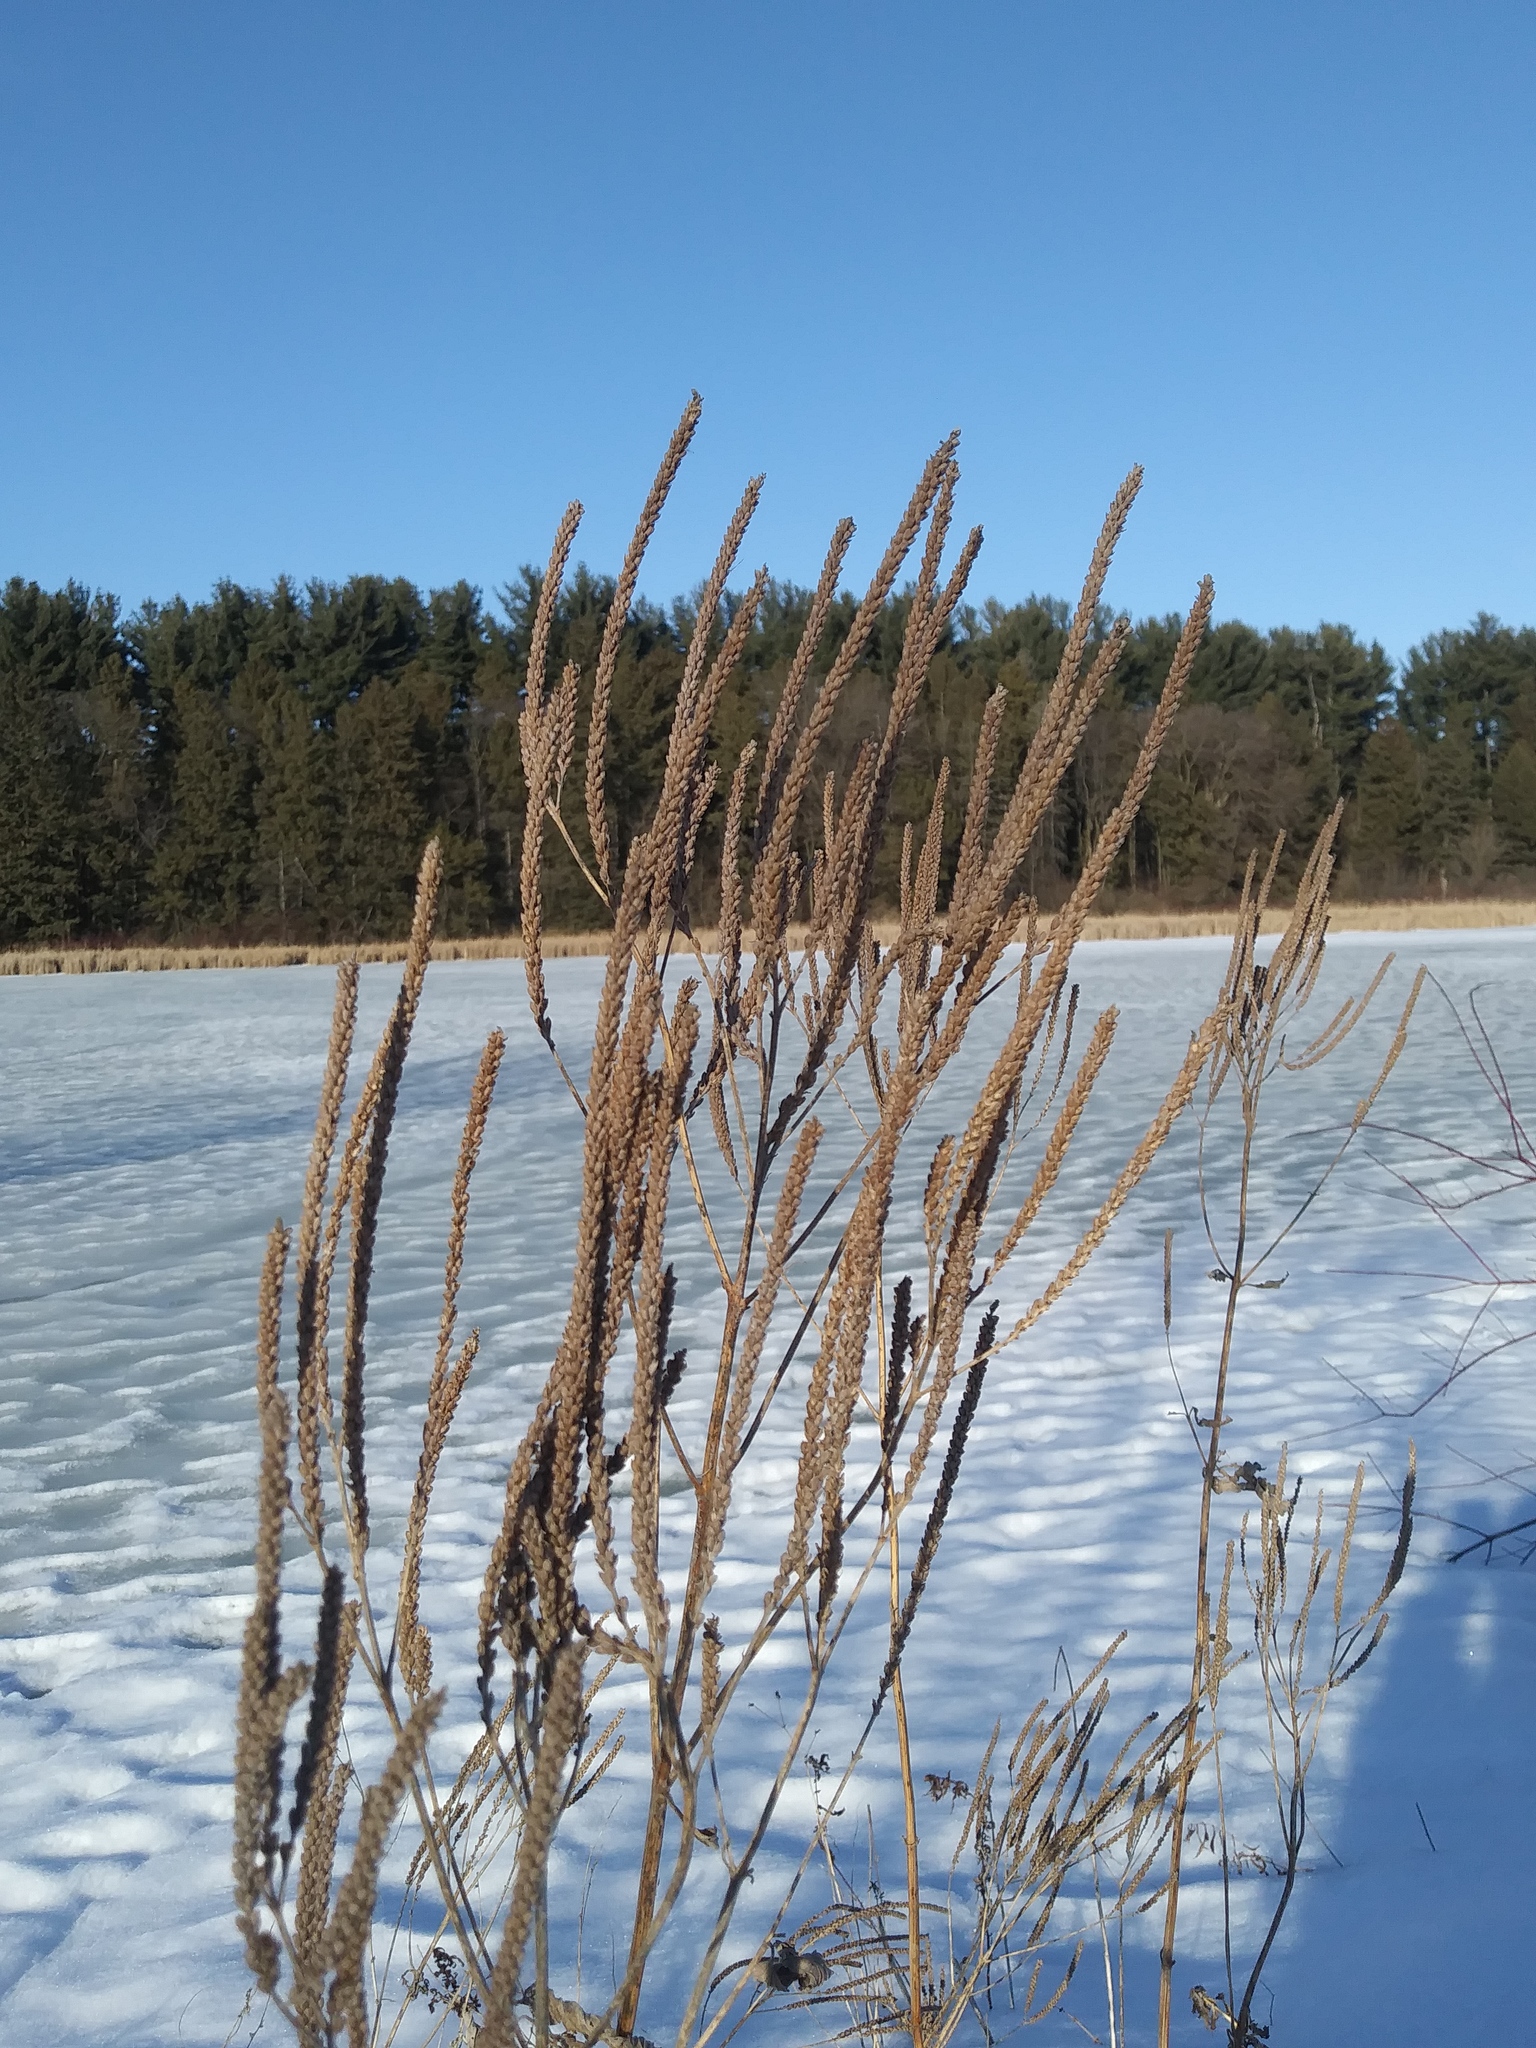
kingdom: Plantae
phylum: Tracheophyta
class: Magnoliopsida
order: Lamiales
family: Verbenaceae
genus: Verbena
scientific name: Verbena hastata
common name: American blue vervain
